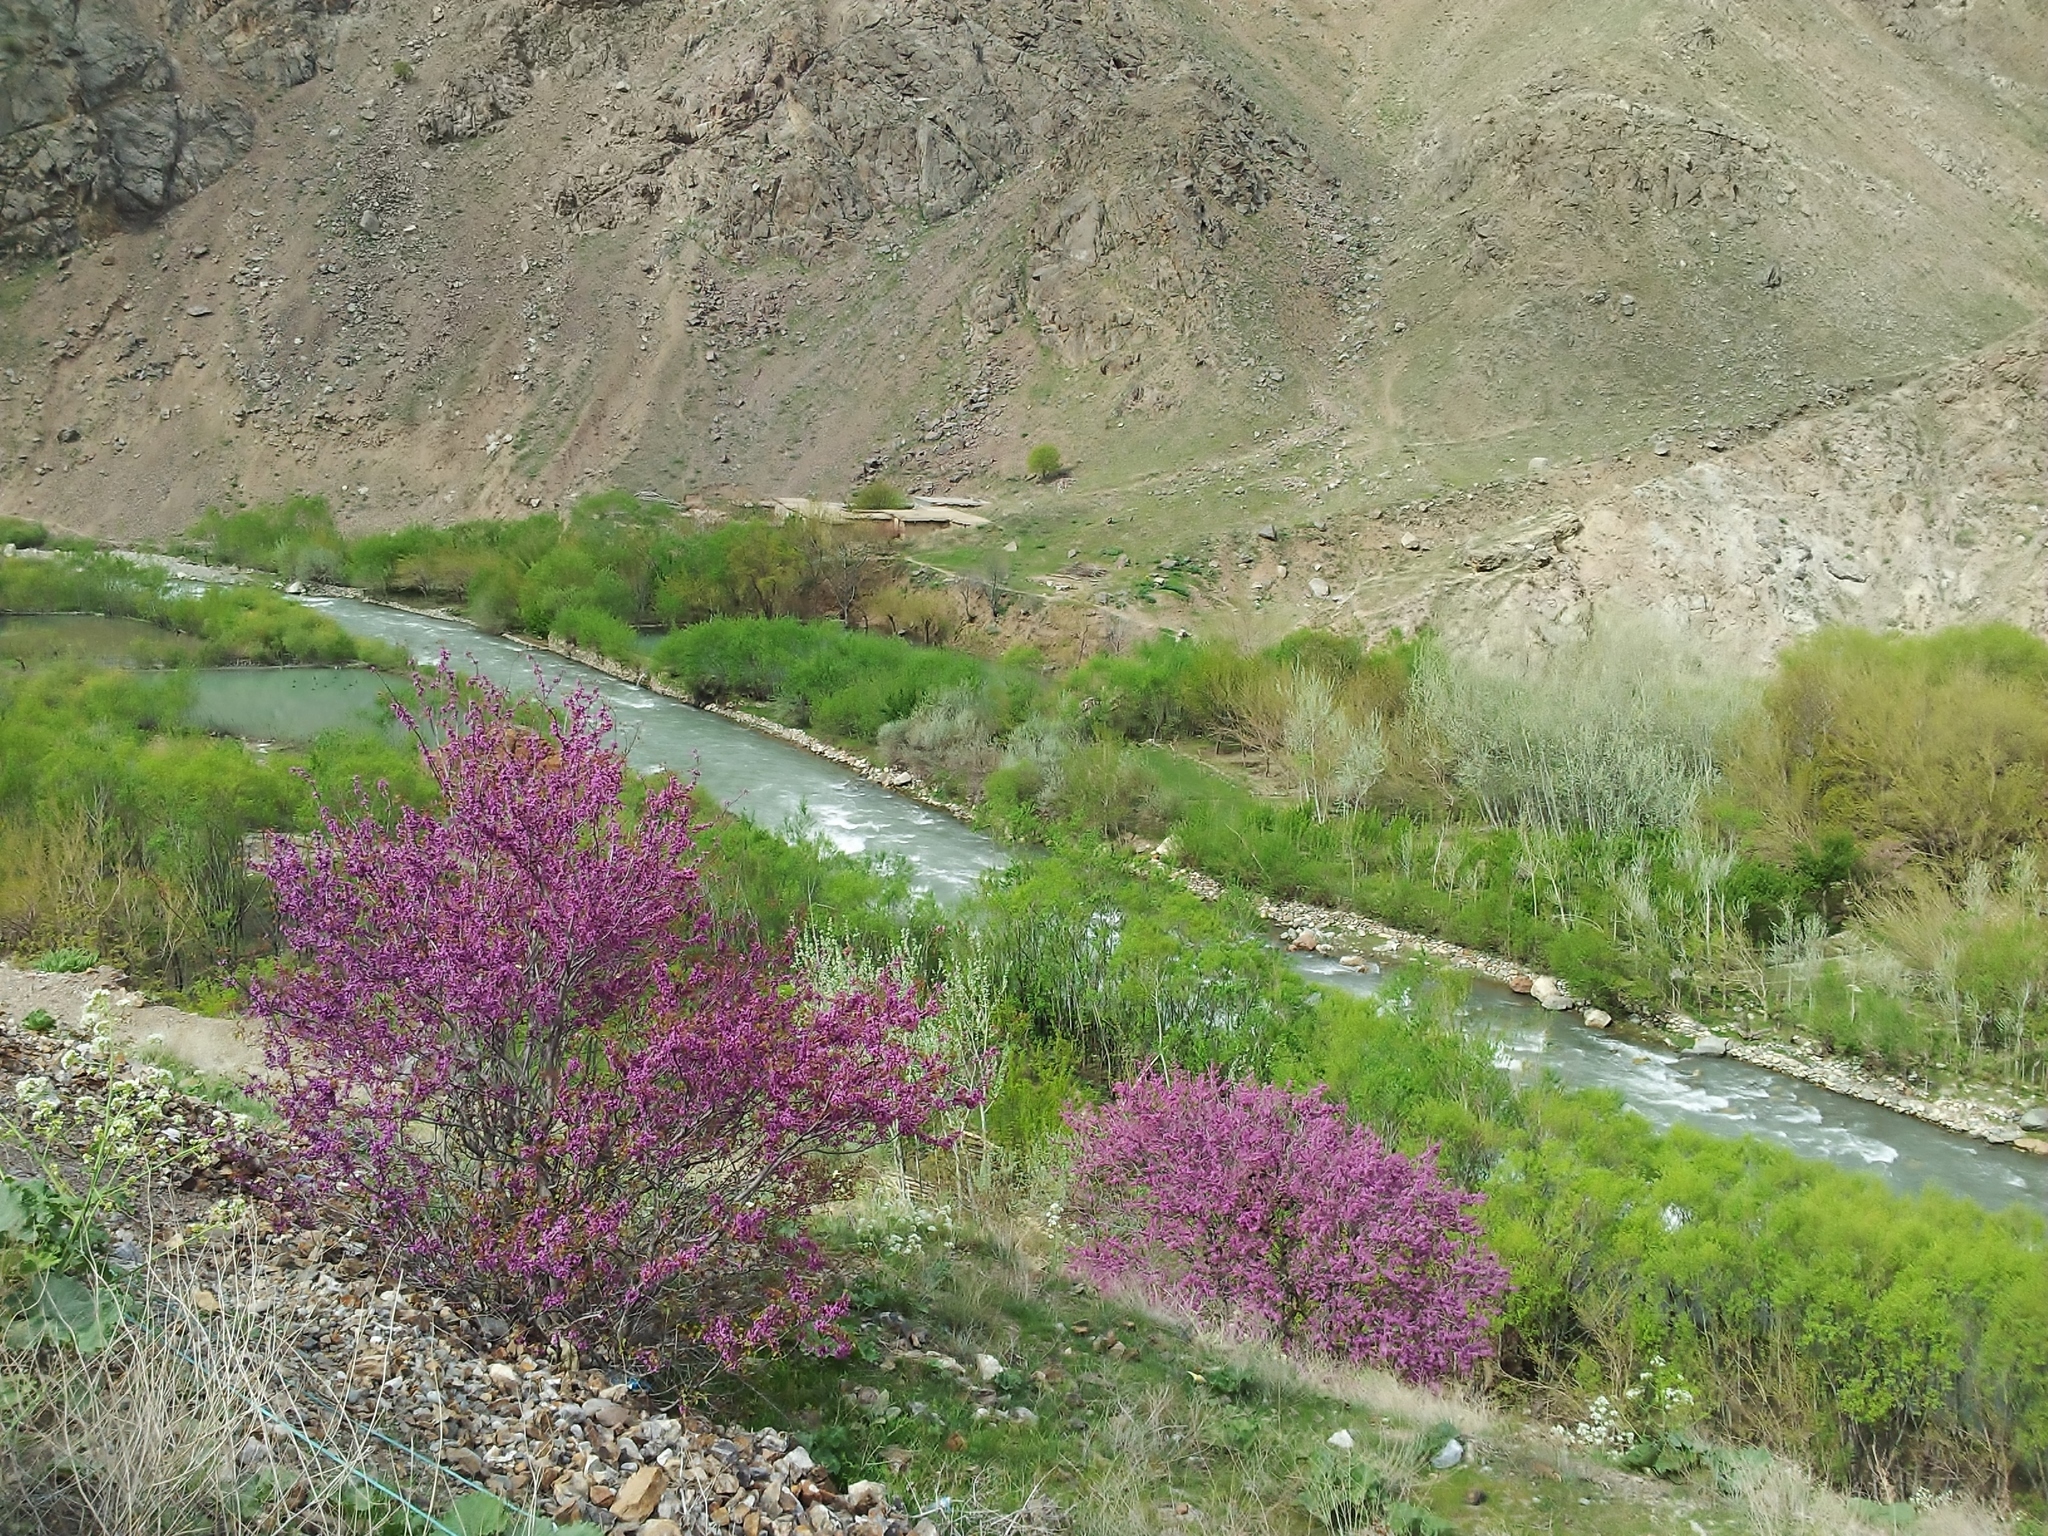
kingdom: Plantae
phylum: Tracheophyta
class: Magnoliopsida
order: Fabales
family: Fabaceae
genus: Cercis
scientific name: Cercis griffithii
